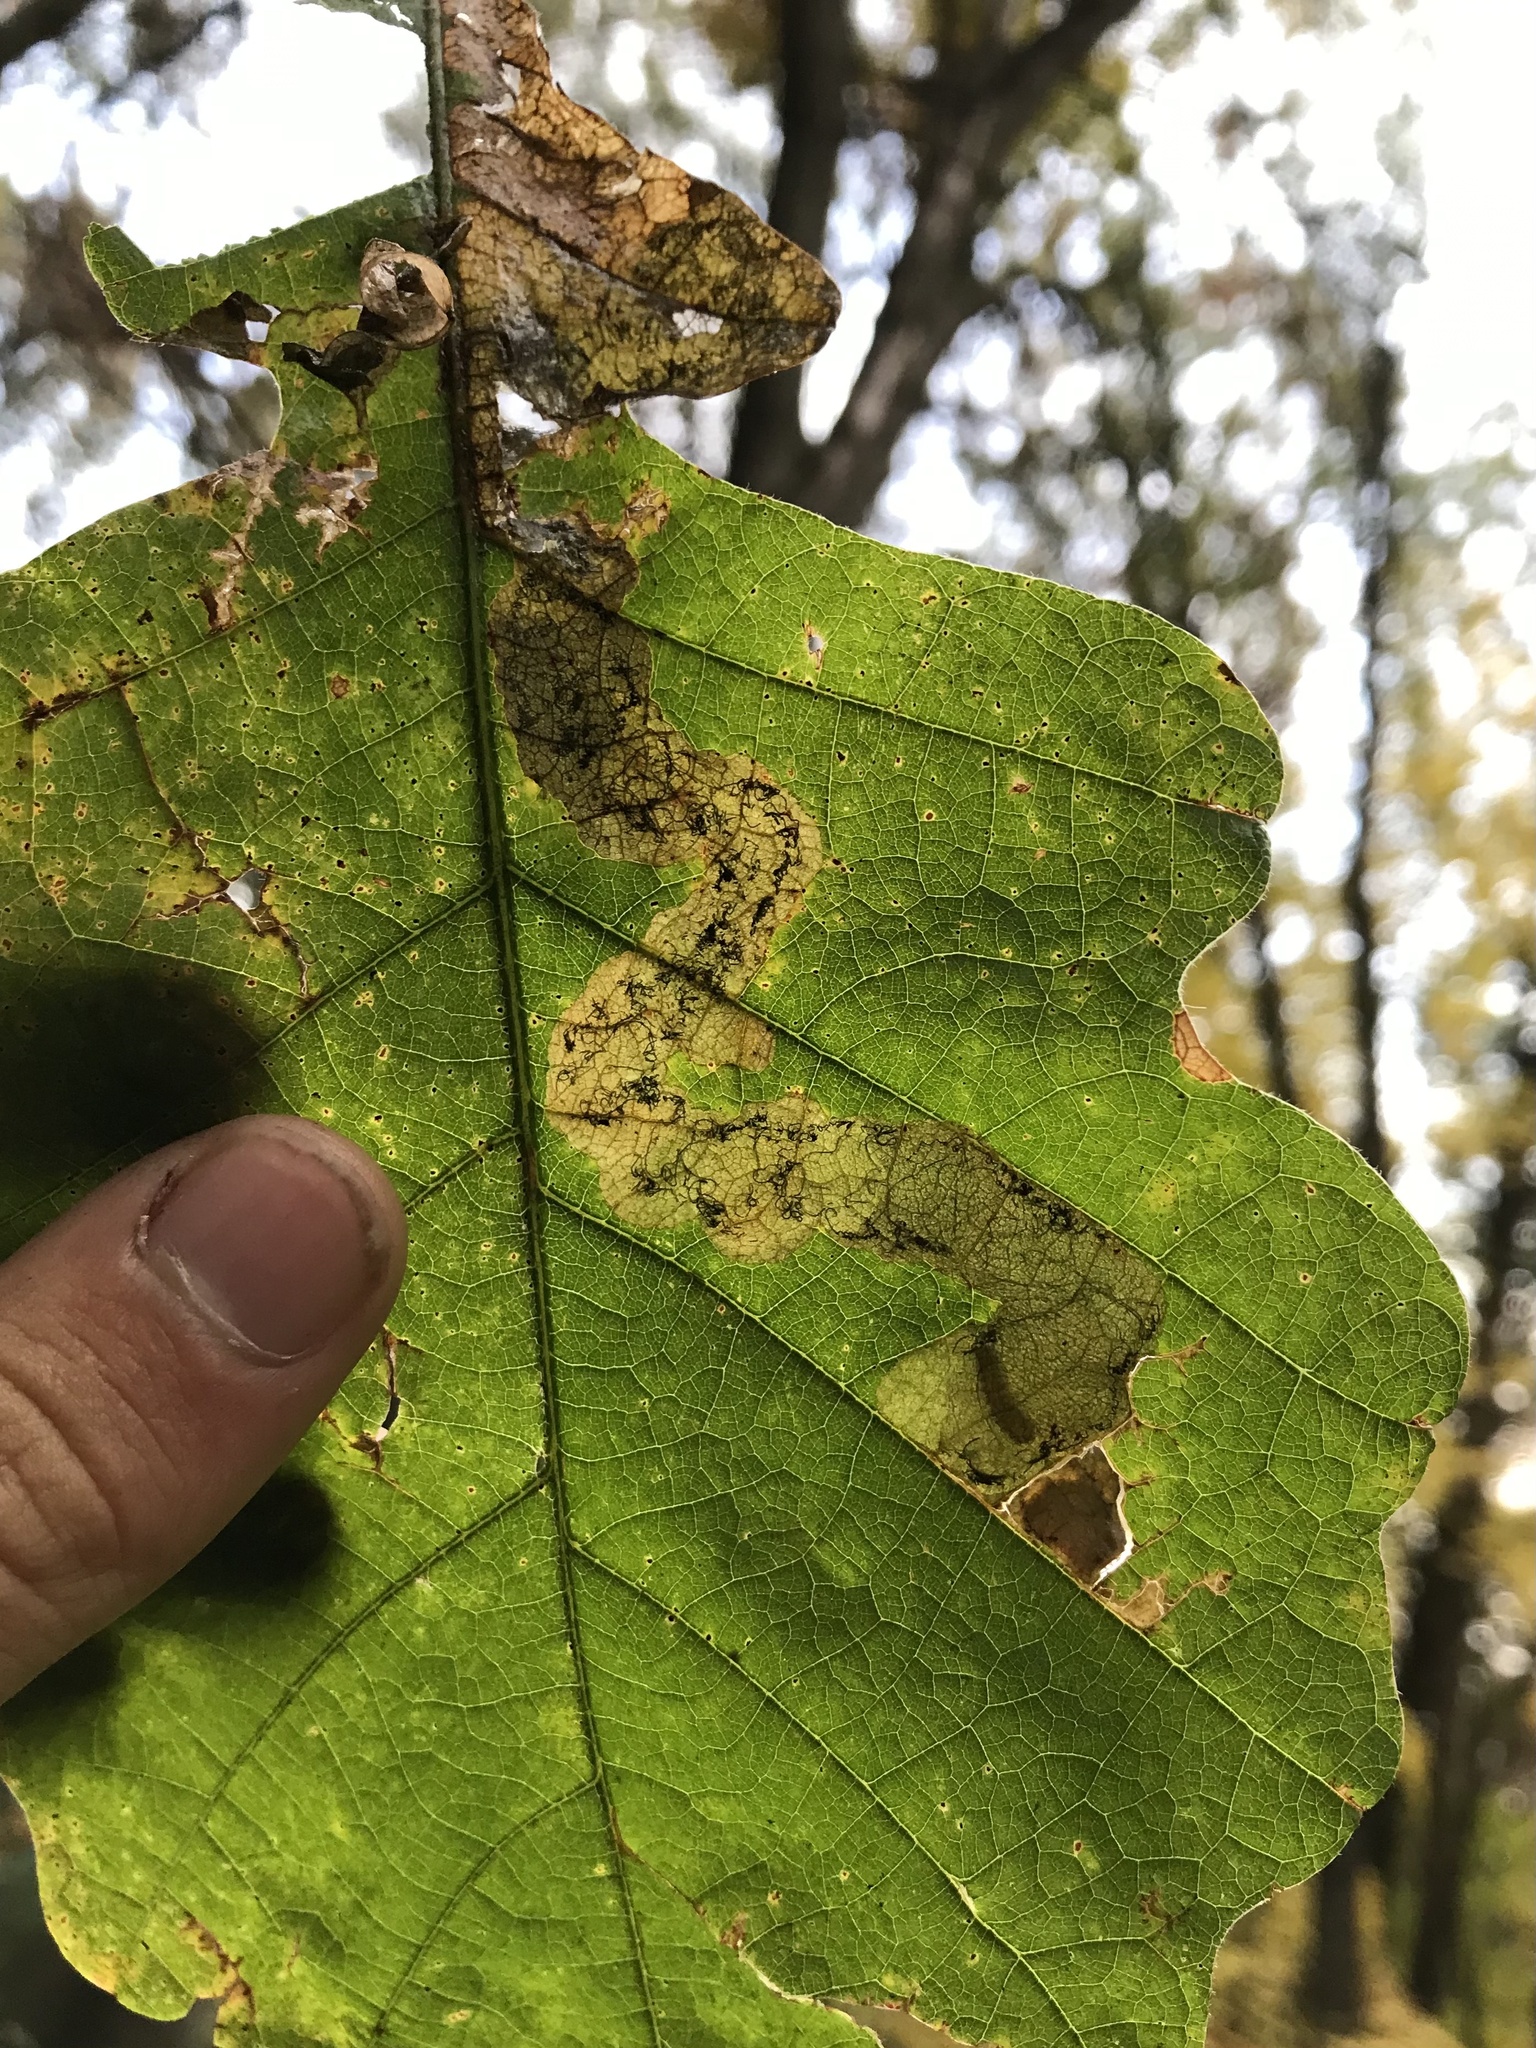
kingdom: Animalia
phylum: Arthropoda
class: Insecta
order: Coleoptera
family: Buprestidae
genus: Brachys
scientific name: Brachys aerosus
